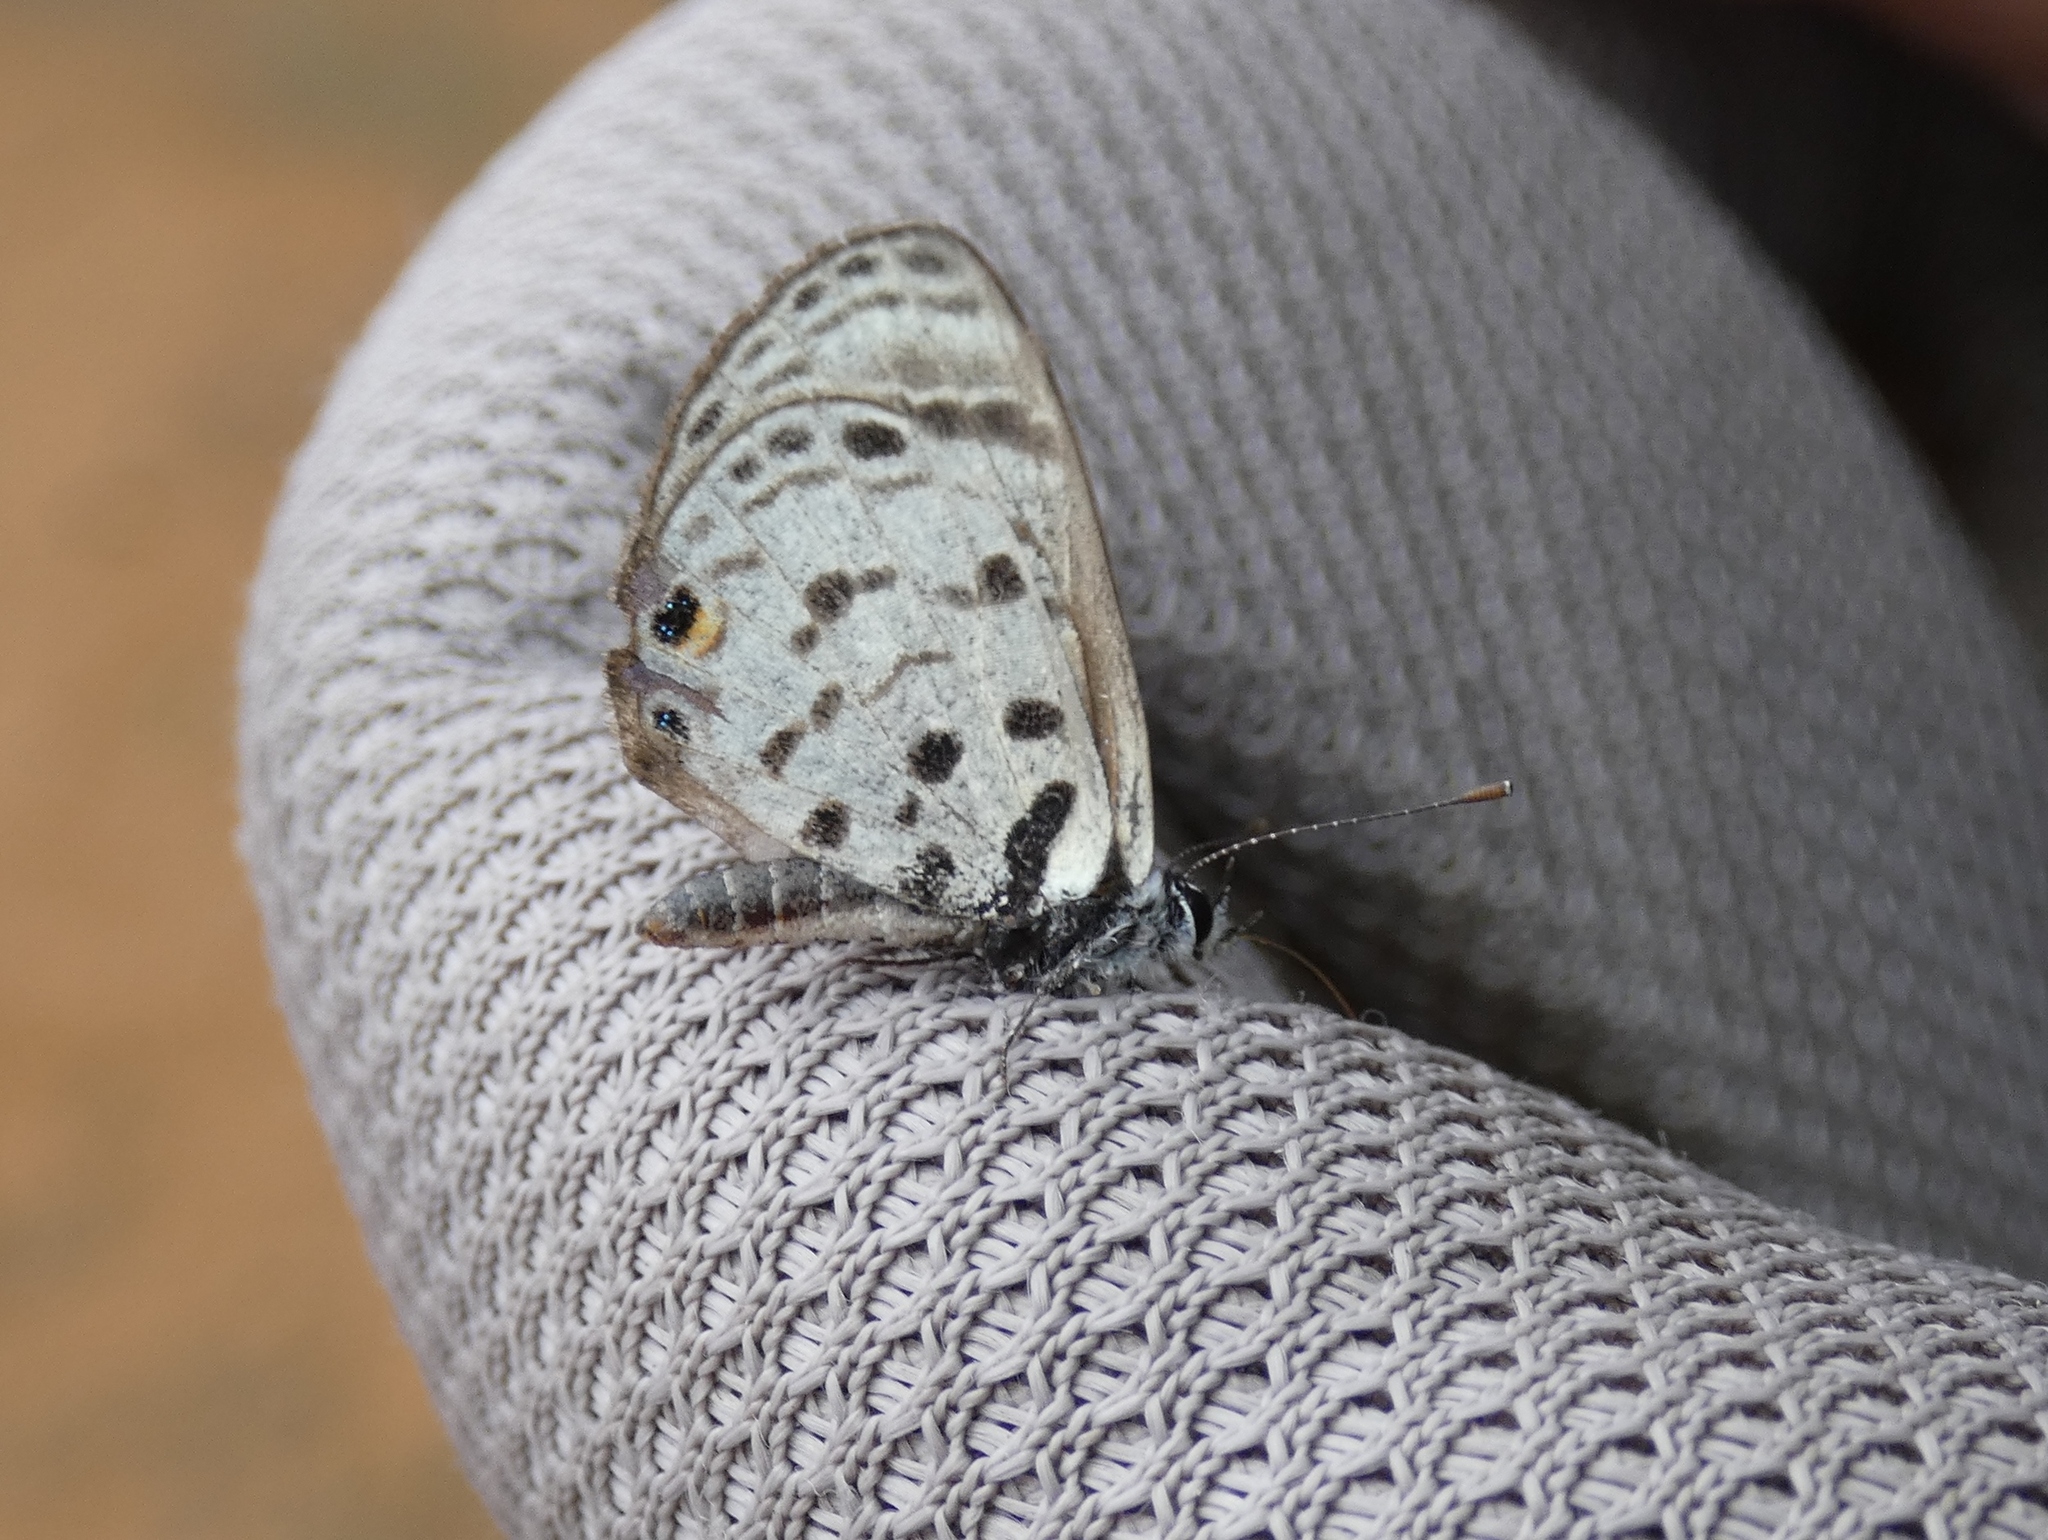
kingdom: Animalia
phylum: Arthropoda
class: Insecta
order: Lepidoptera
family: Lycaenidae
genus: Azanus
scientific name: Azanus mirza
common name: Mirza babul blue
